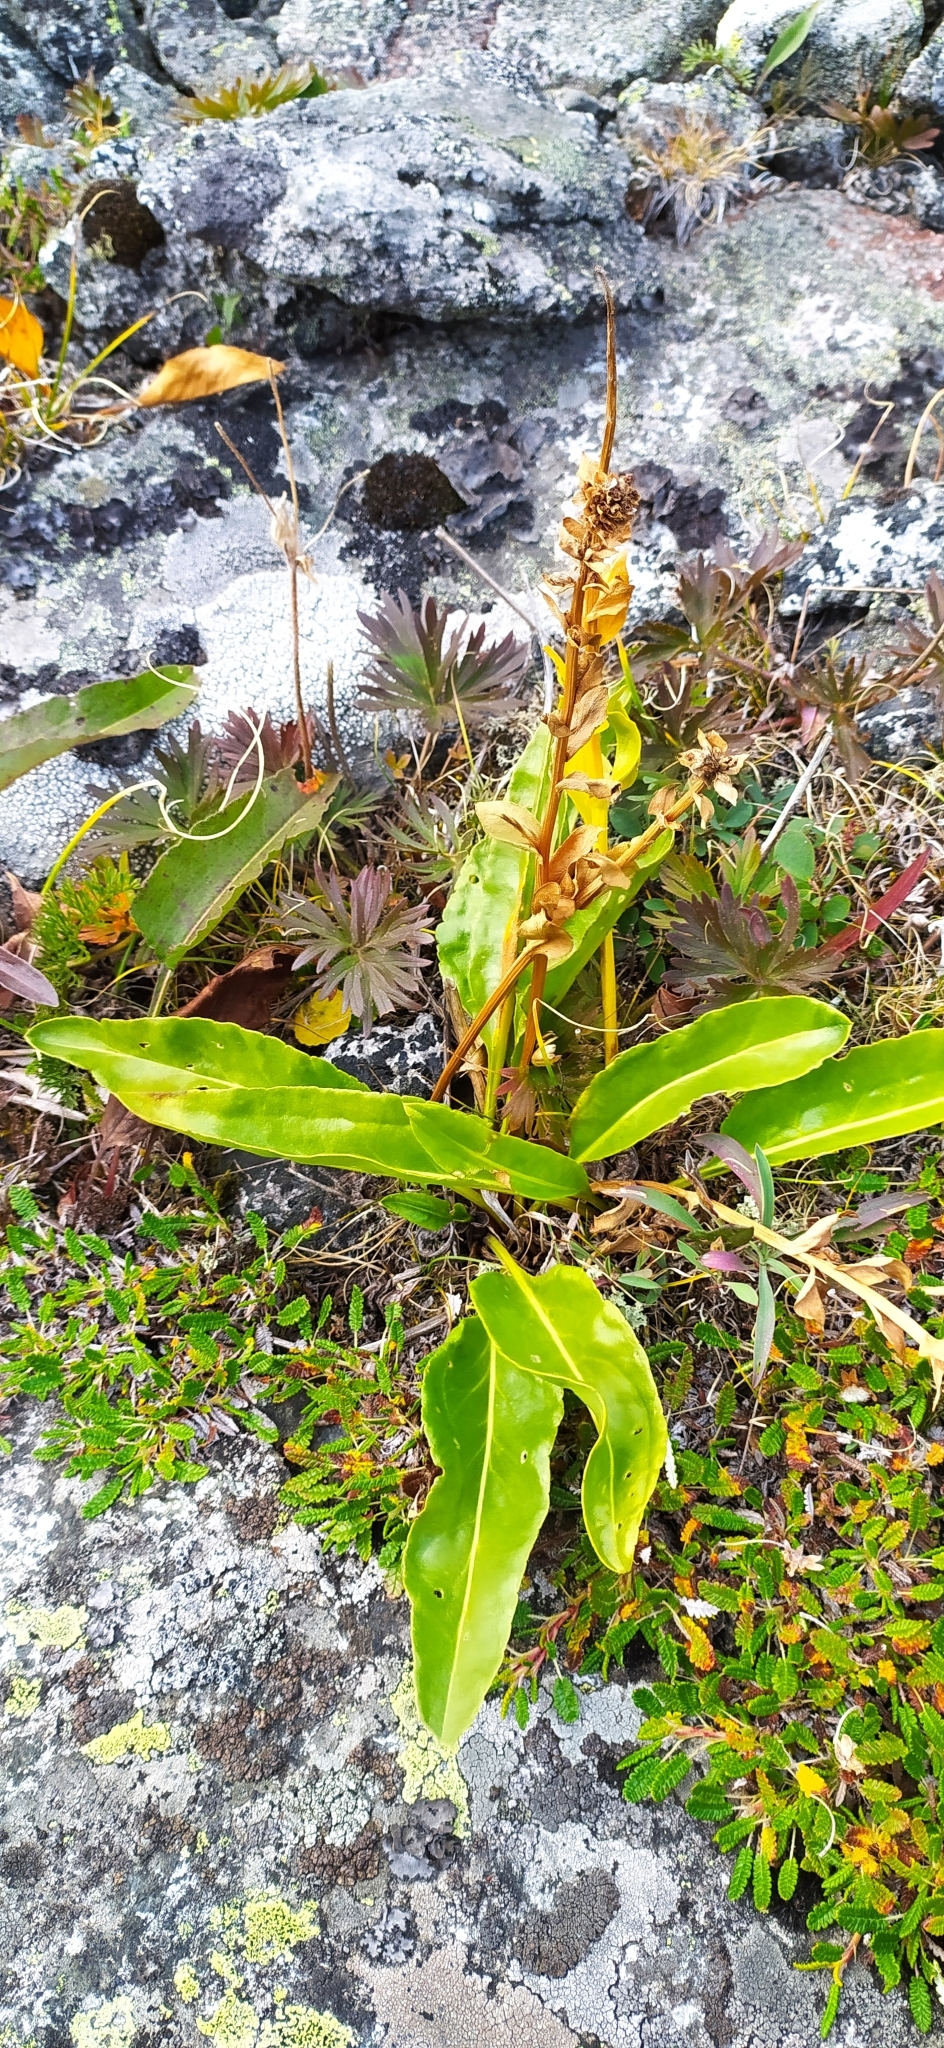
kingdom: Plantae
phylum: Tracheophyta
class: Magnoliopsida
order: Lamiales
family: Plantaginaceae
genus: Lagotis
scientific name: Lagotis uralensis
